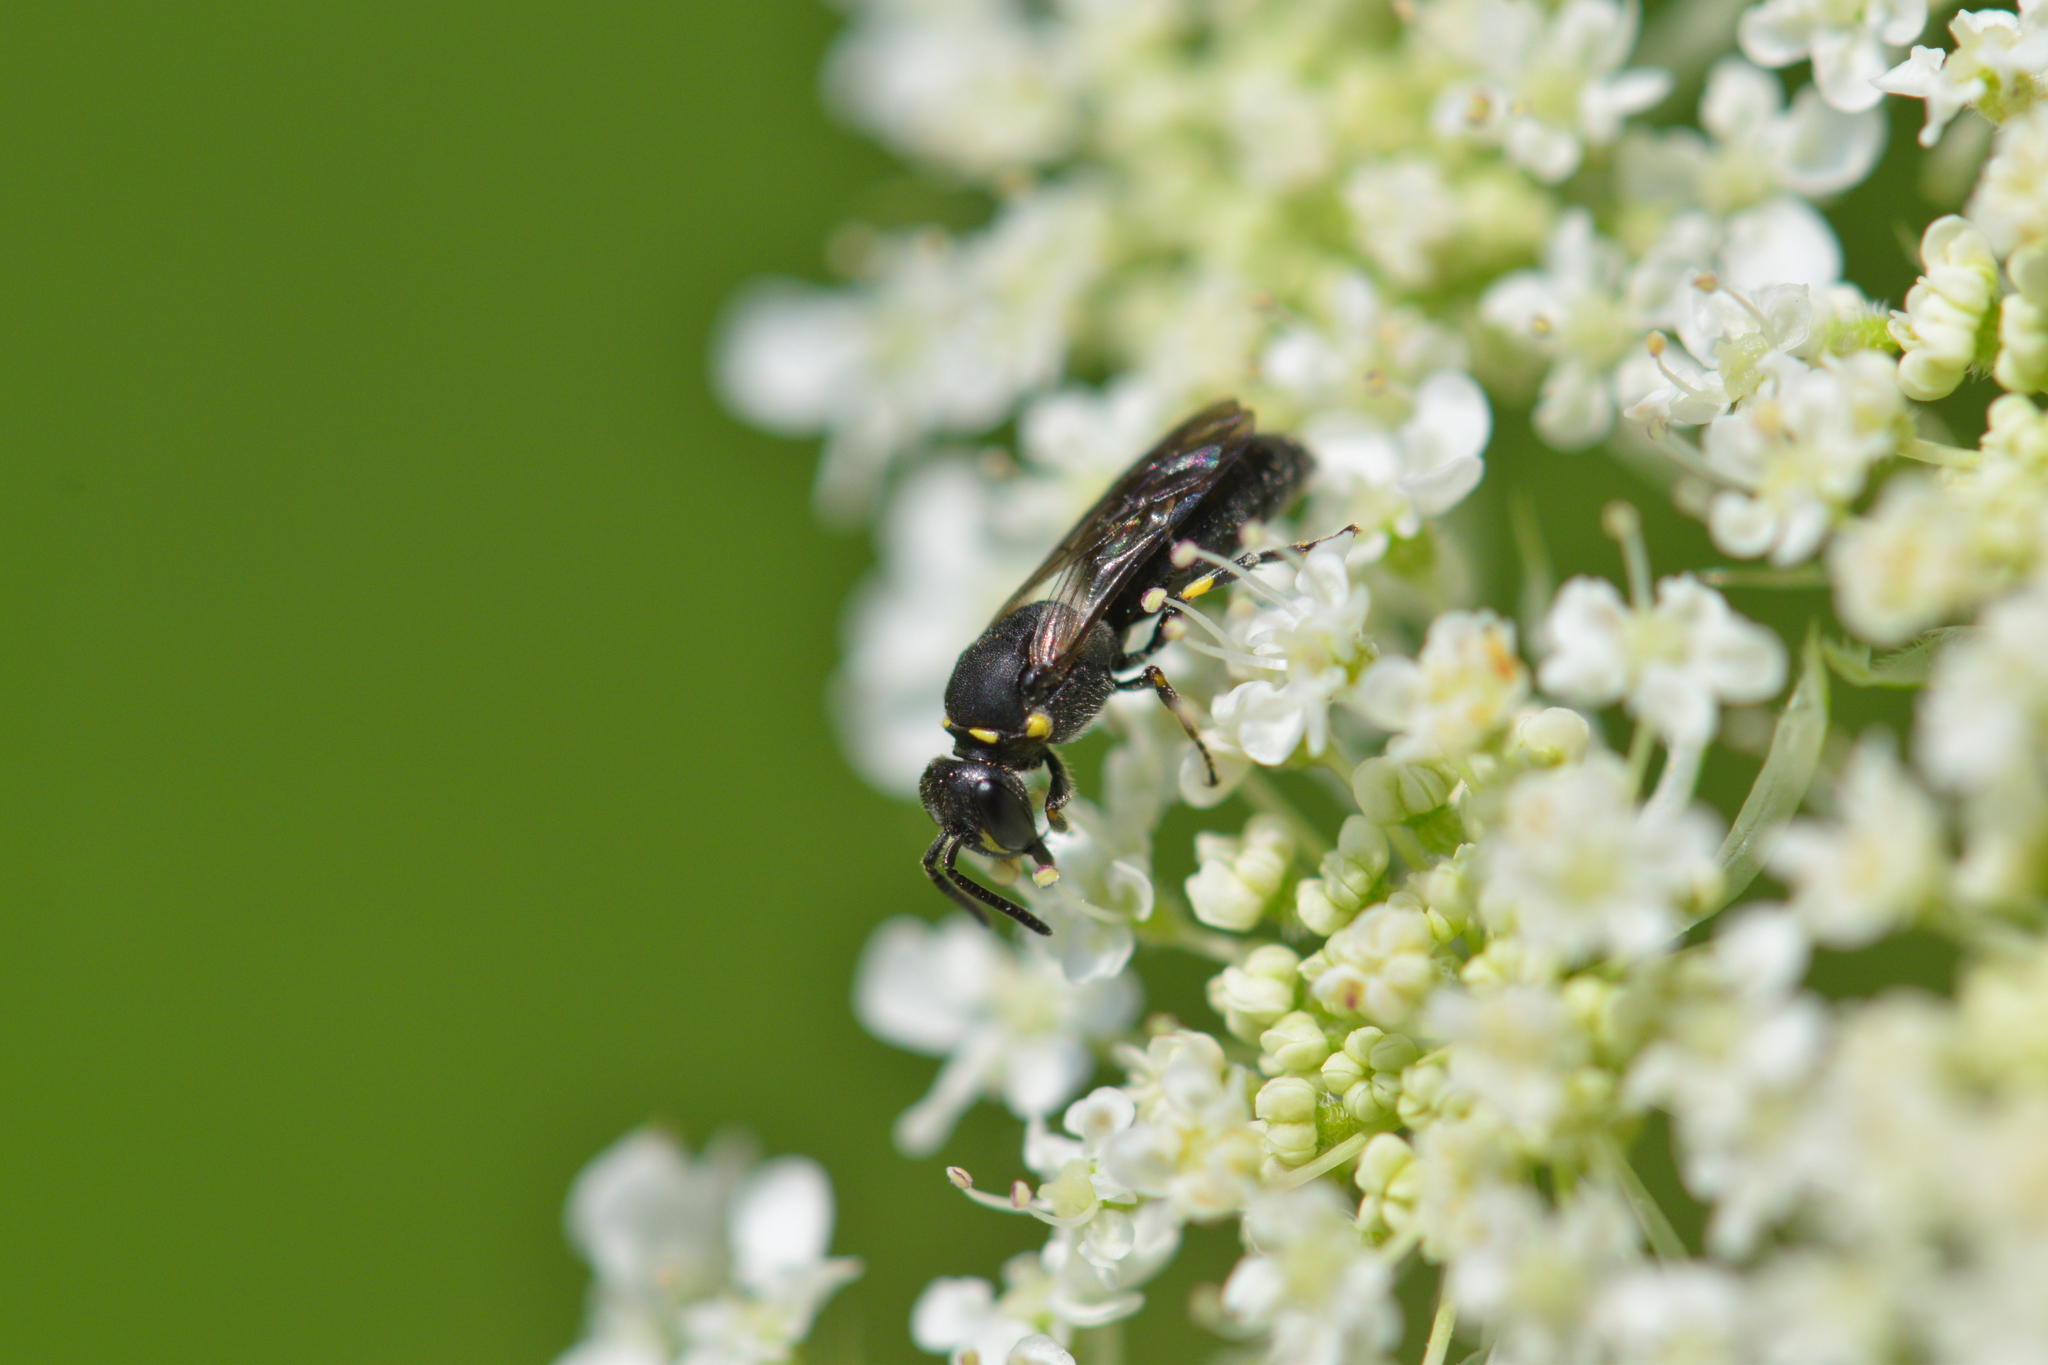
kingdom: Animalia
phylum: Arthropoda
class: Insecta
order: Hymenoptera
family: Colletidae
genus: Hylaeus
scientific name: Hylaeus modestus
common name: Yellow-faced bee
